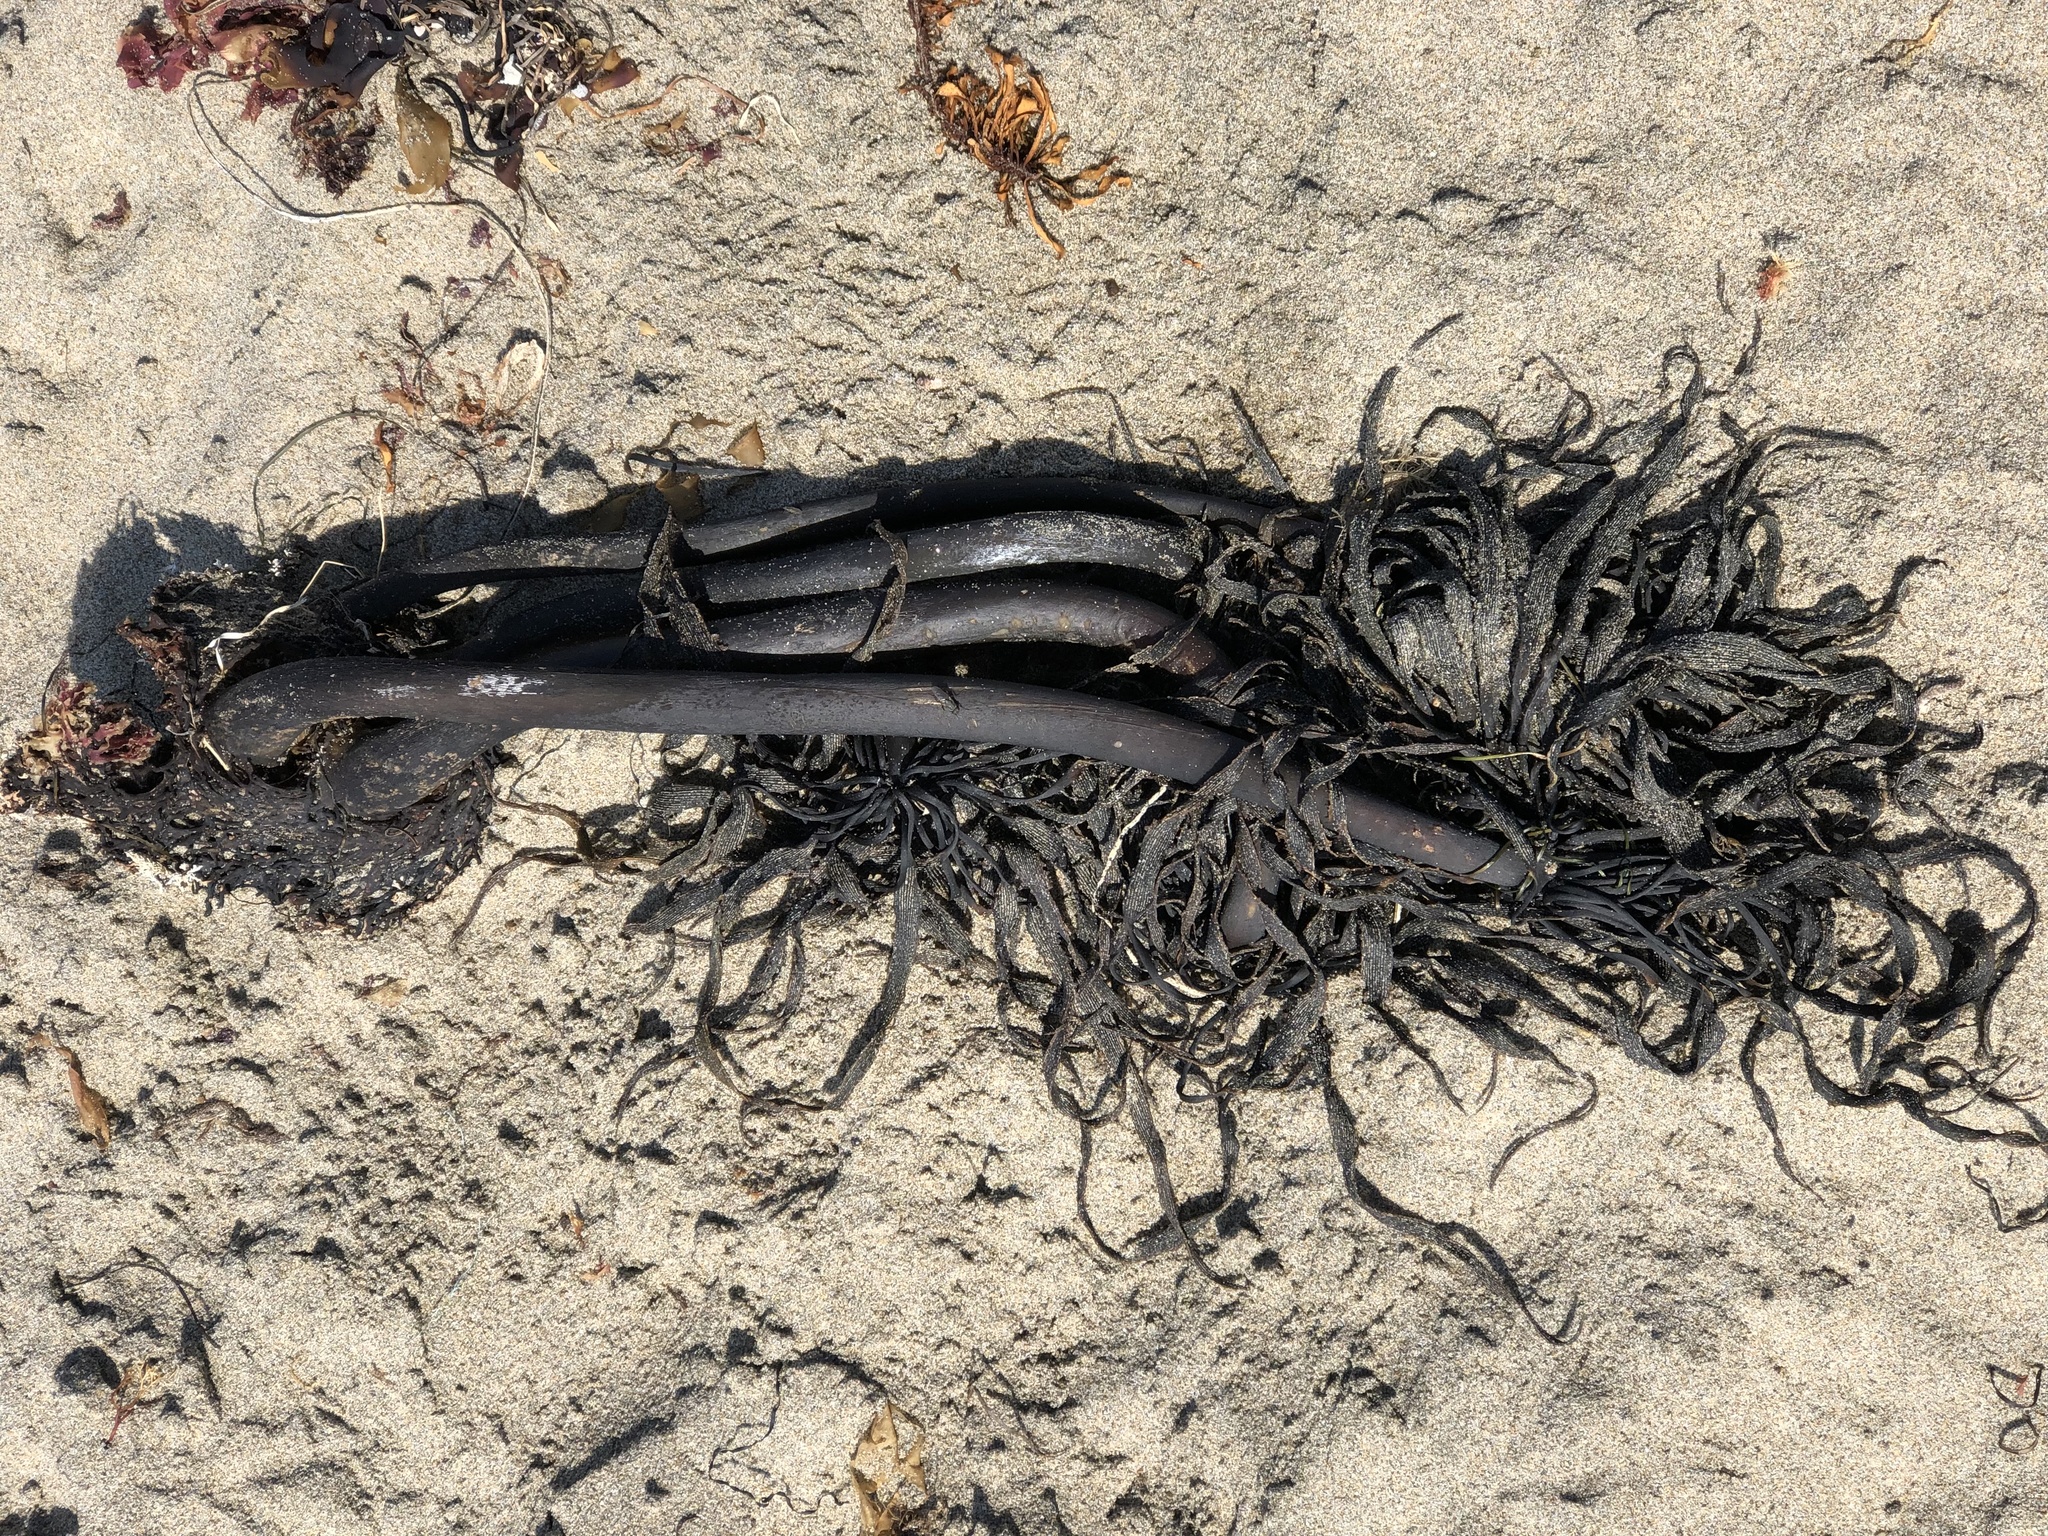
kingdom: Chromista
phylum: Ochrophyta
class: Phaeophyceae
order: Laminariales
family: Laminariaceae
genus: Postelsia
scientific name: Postelsia palmiformis
